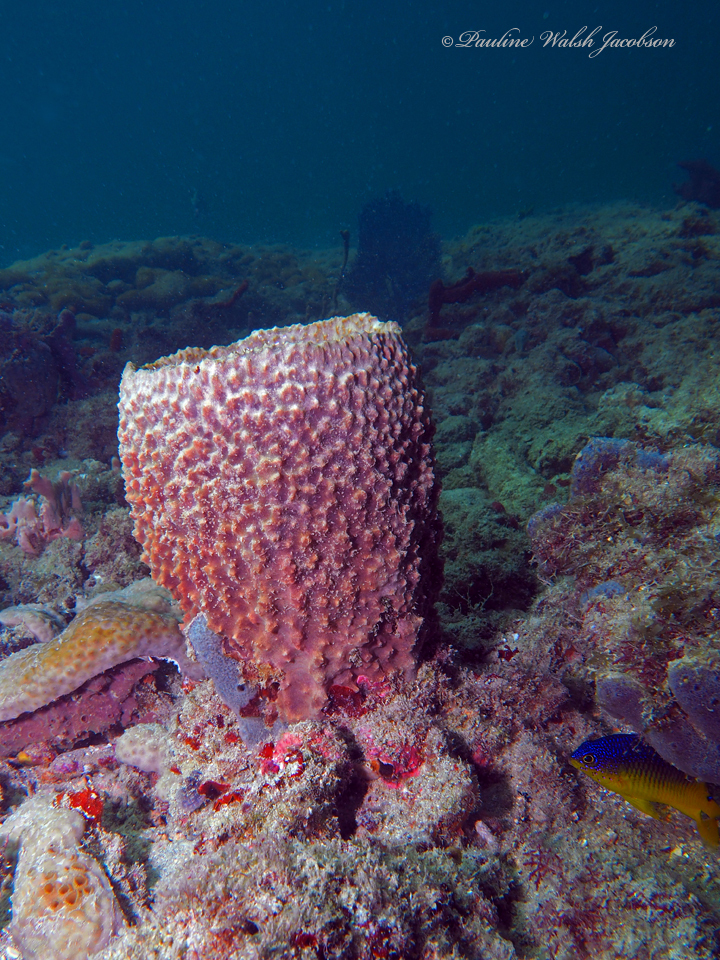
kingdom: Animalia
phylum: Porifera
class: Demospongiae
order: Dictyoceratida
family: Irciniidae
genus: Ircinia
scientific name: Ircinia campana
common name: Vase sponge
